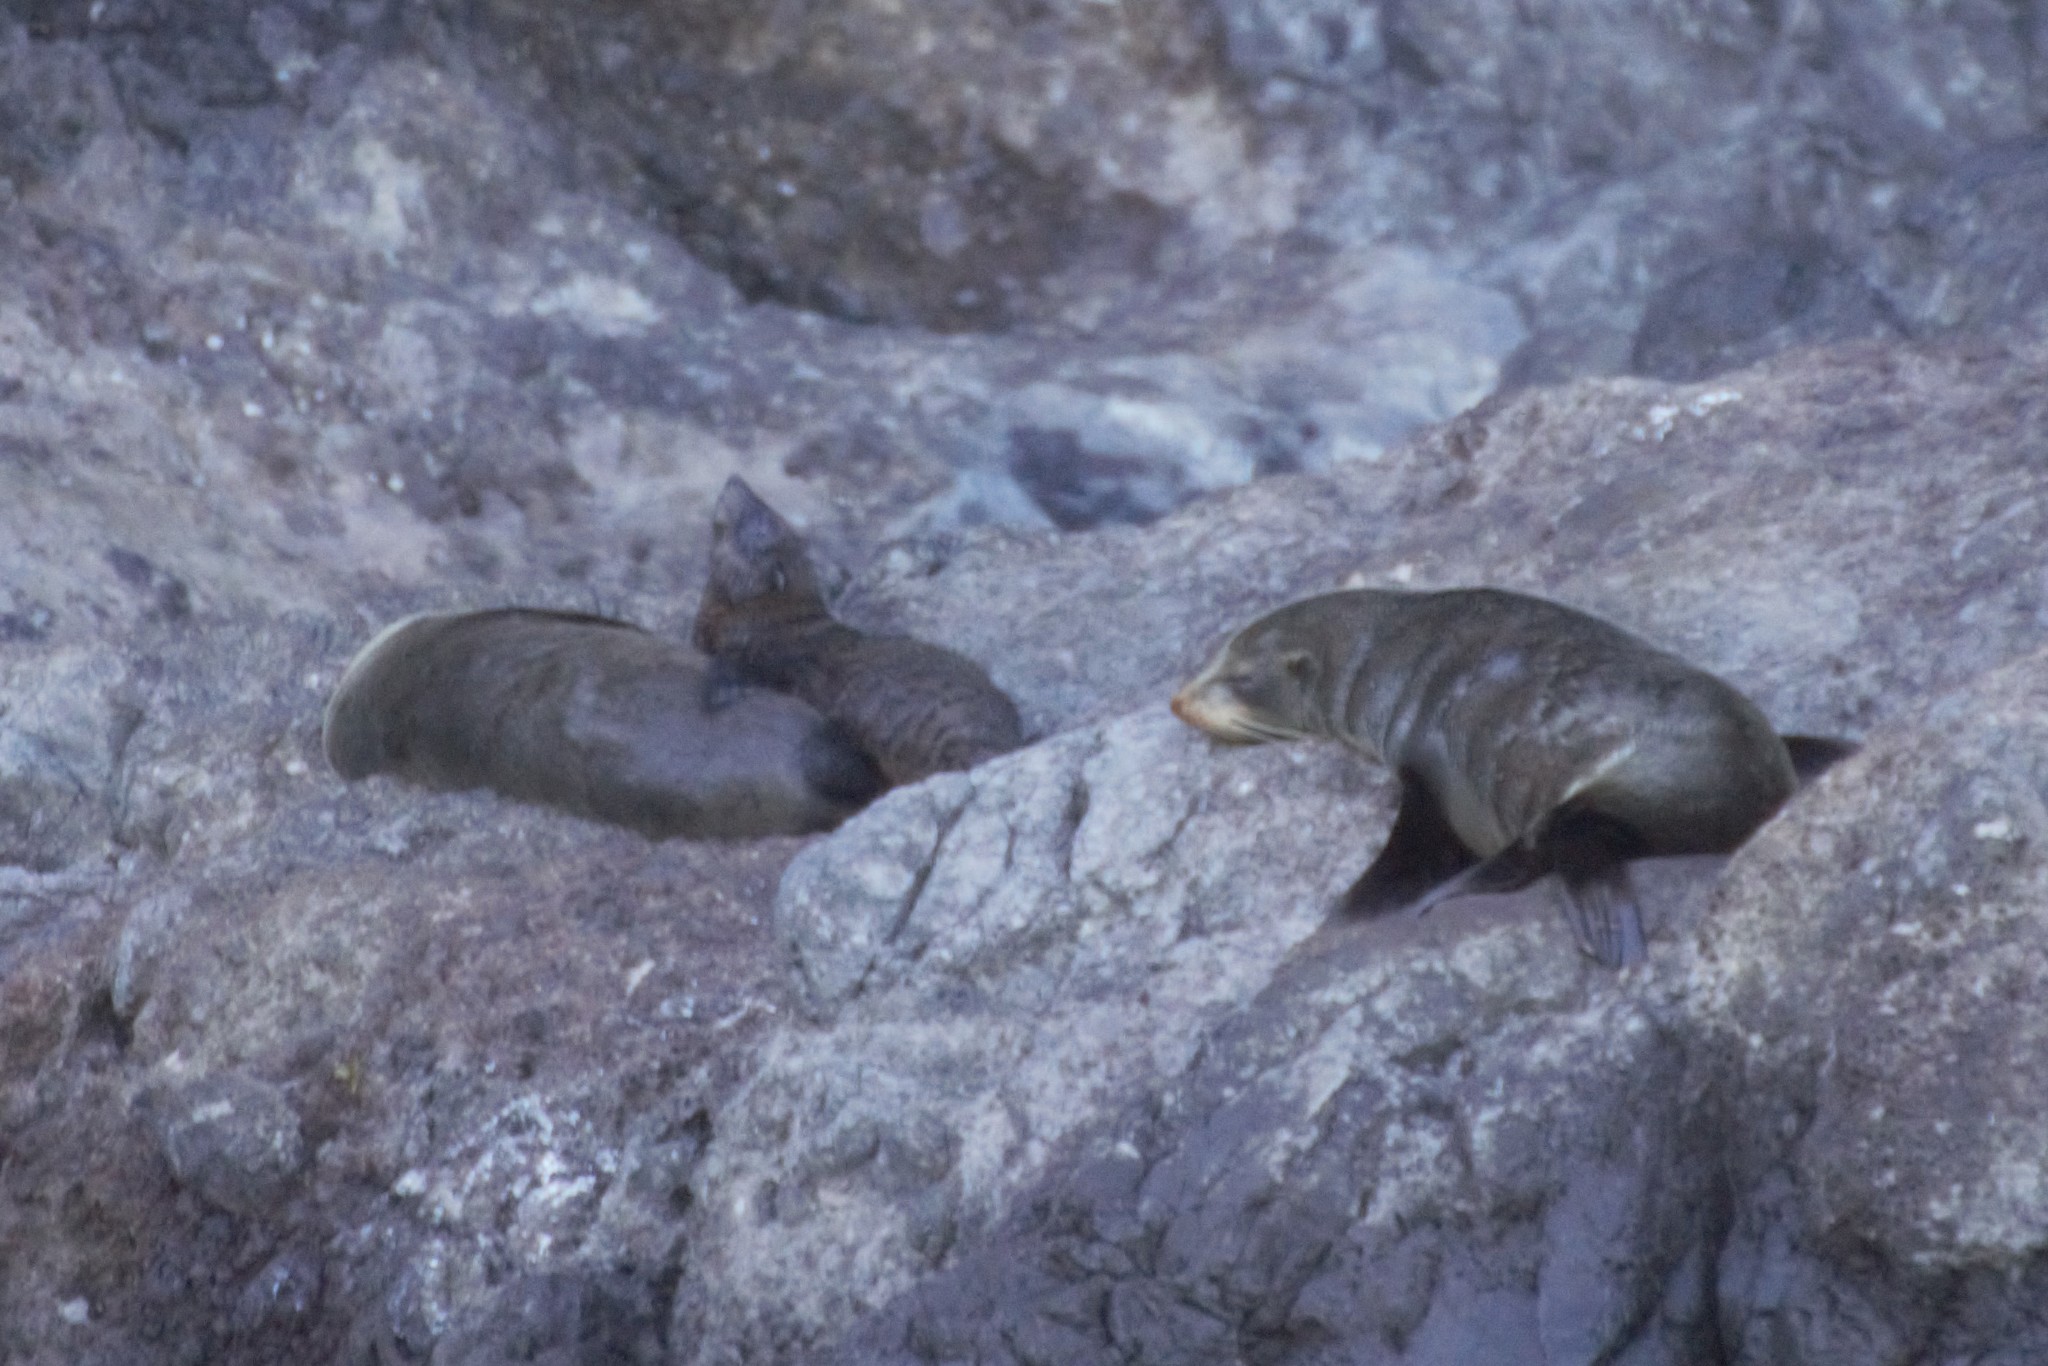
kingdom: Animalia
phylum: Chordata
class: Mammalia
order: Carnivora
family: Otariidae
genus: Arctocephalus
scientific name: Arctocephalus forsteri
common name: New zealand fur seal
